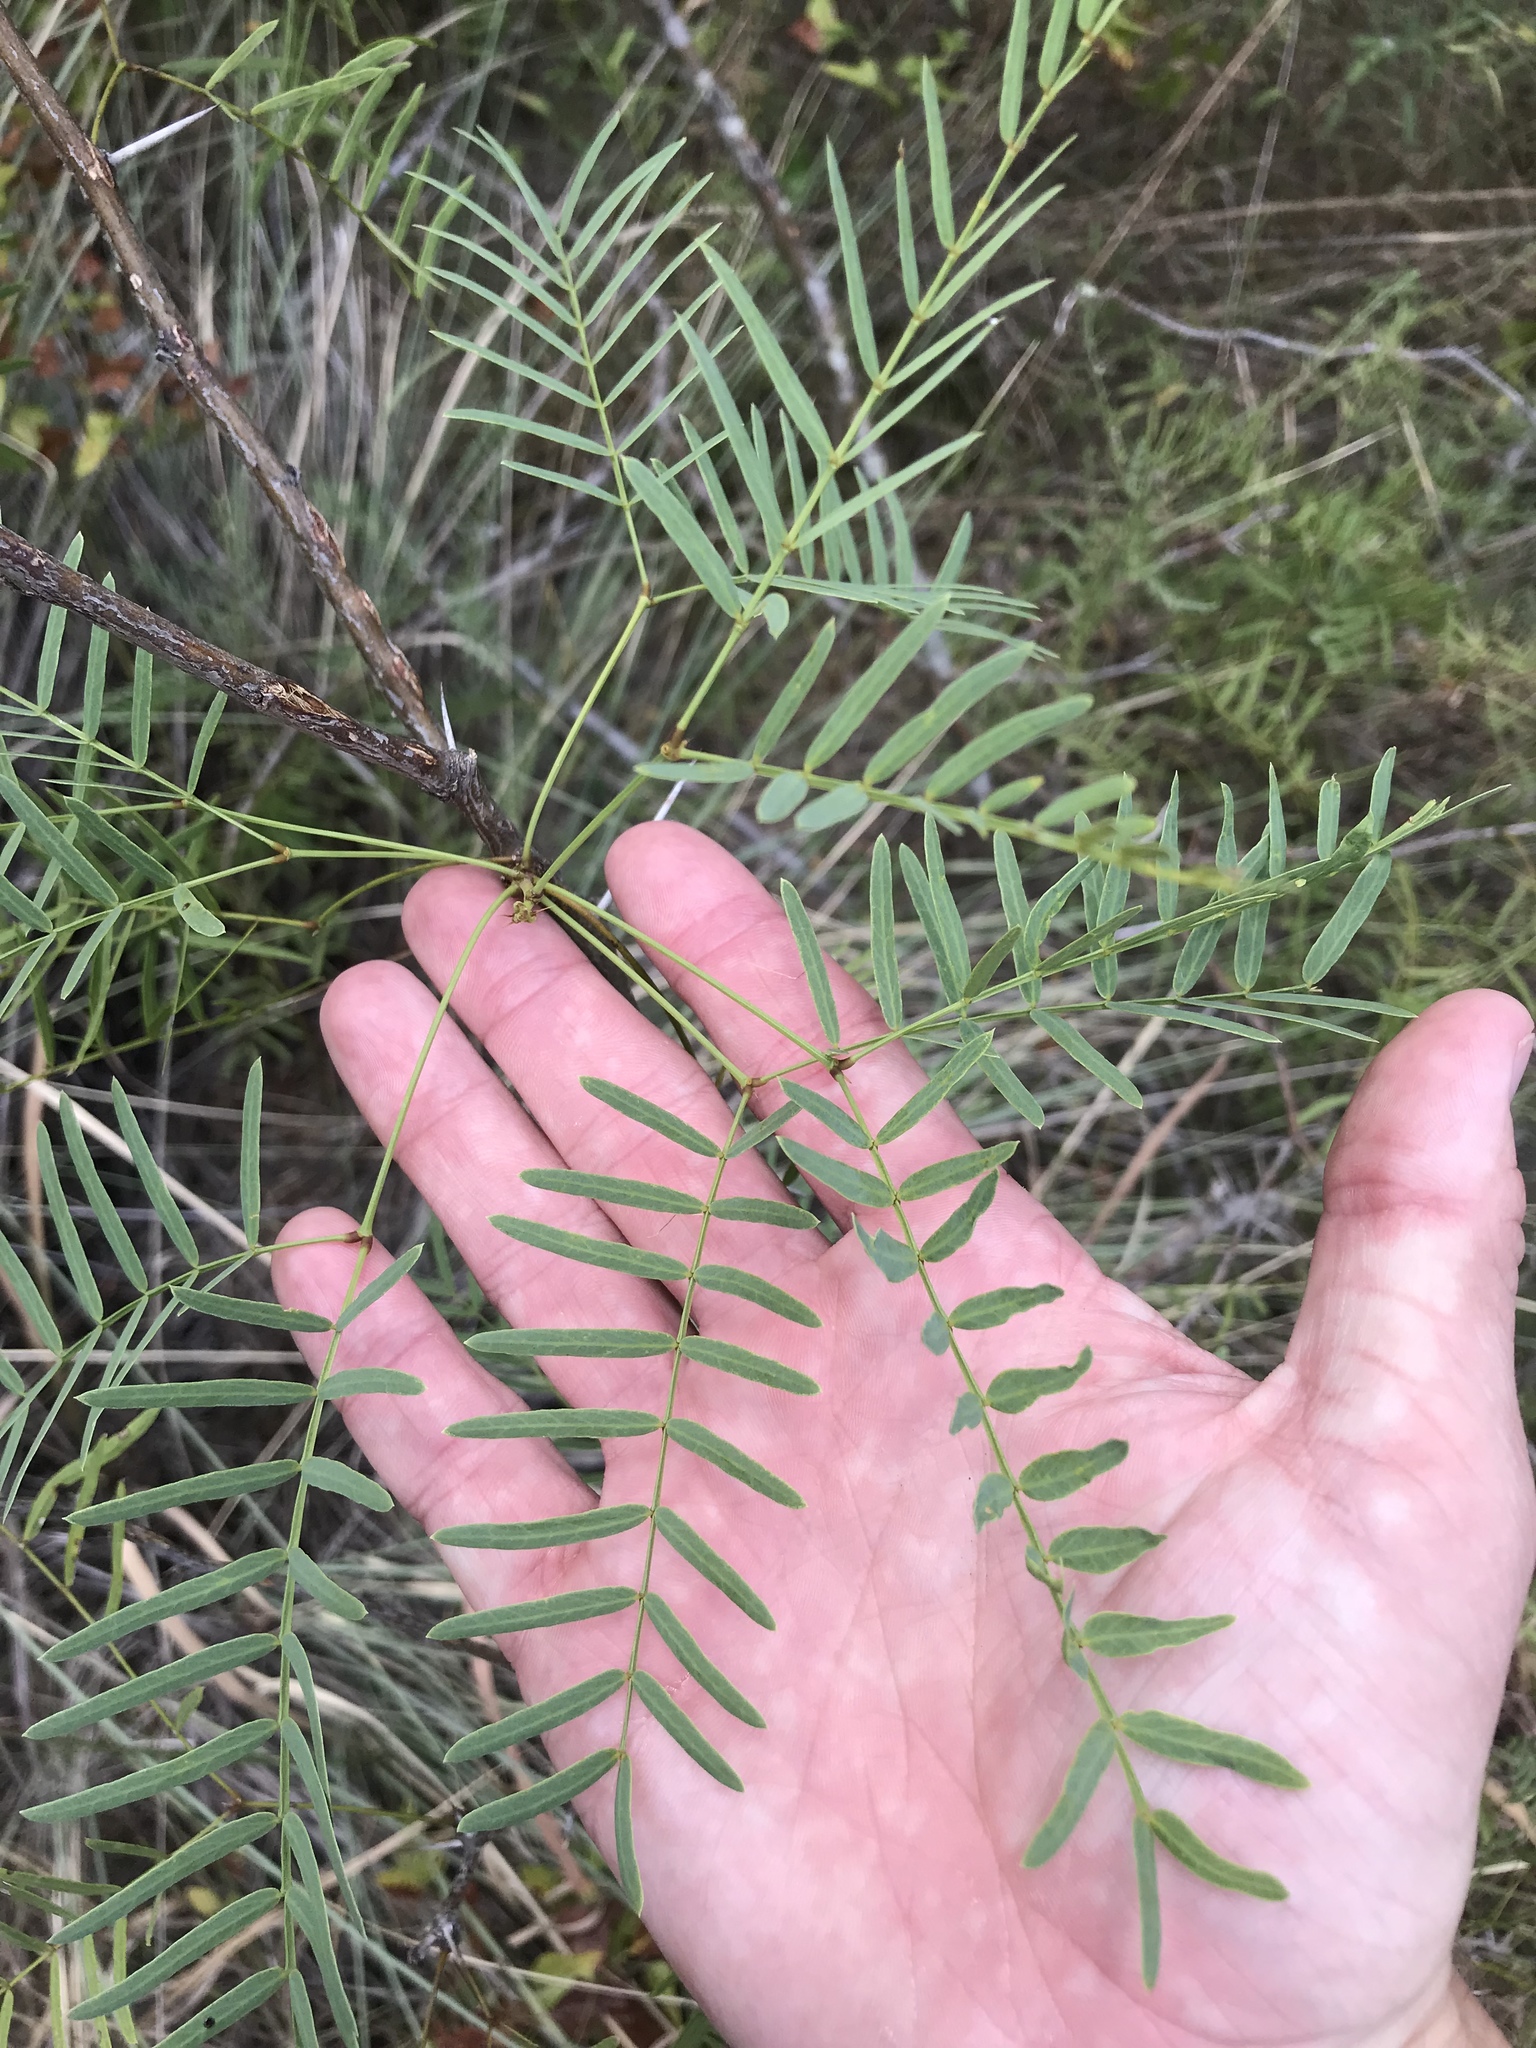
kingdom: Plantae
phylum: Tracheophyta
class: Magnoliopsida
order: Fabales
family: Fabaceae
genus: Prosopis
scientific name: Prosopis glandulosa
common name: Honey mesquite
